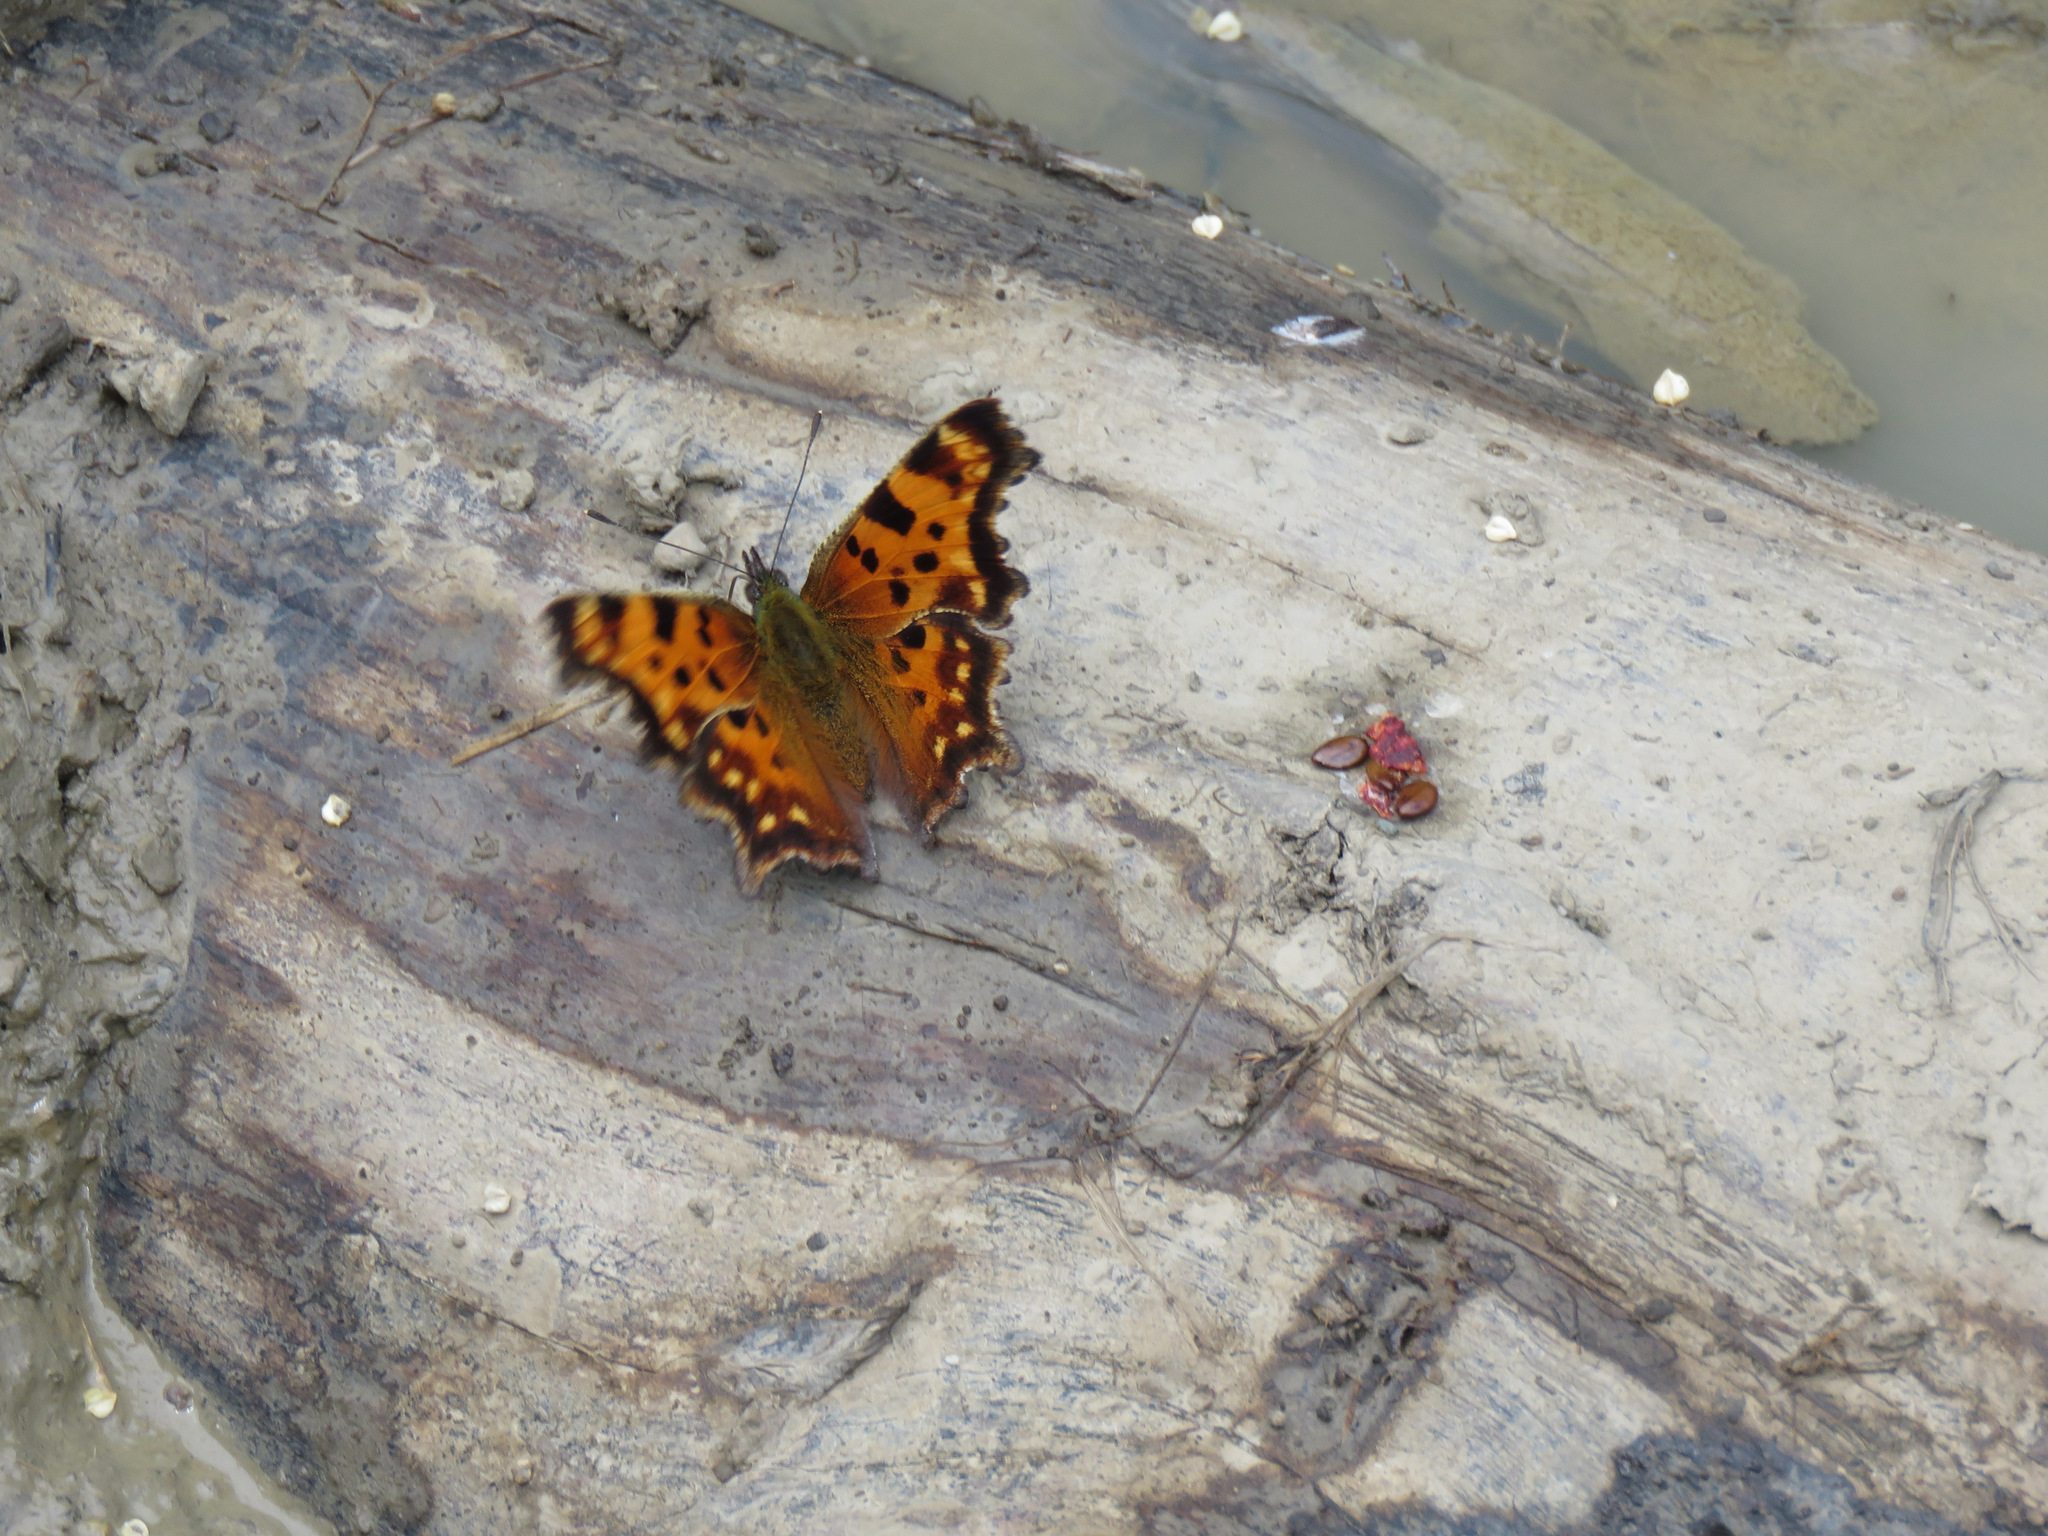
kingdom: Animalia
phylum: Arthropoda
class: Insecta
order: Lepidoptera
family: Nymphalidae
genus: Polygonia
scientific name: Polygonia faunus
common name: Green comma
